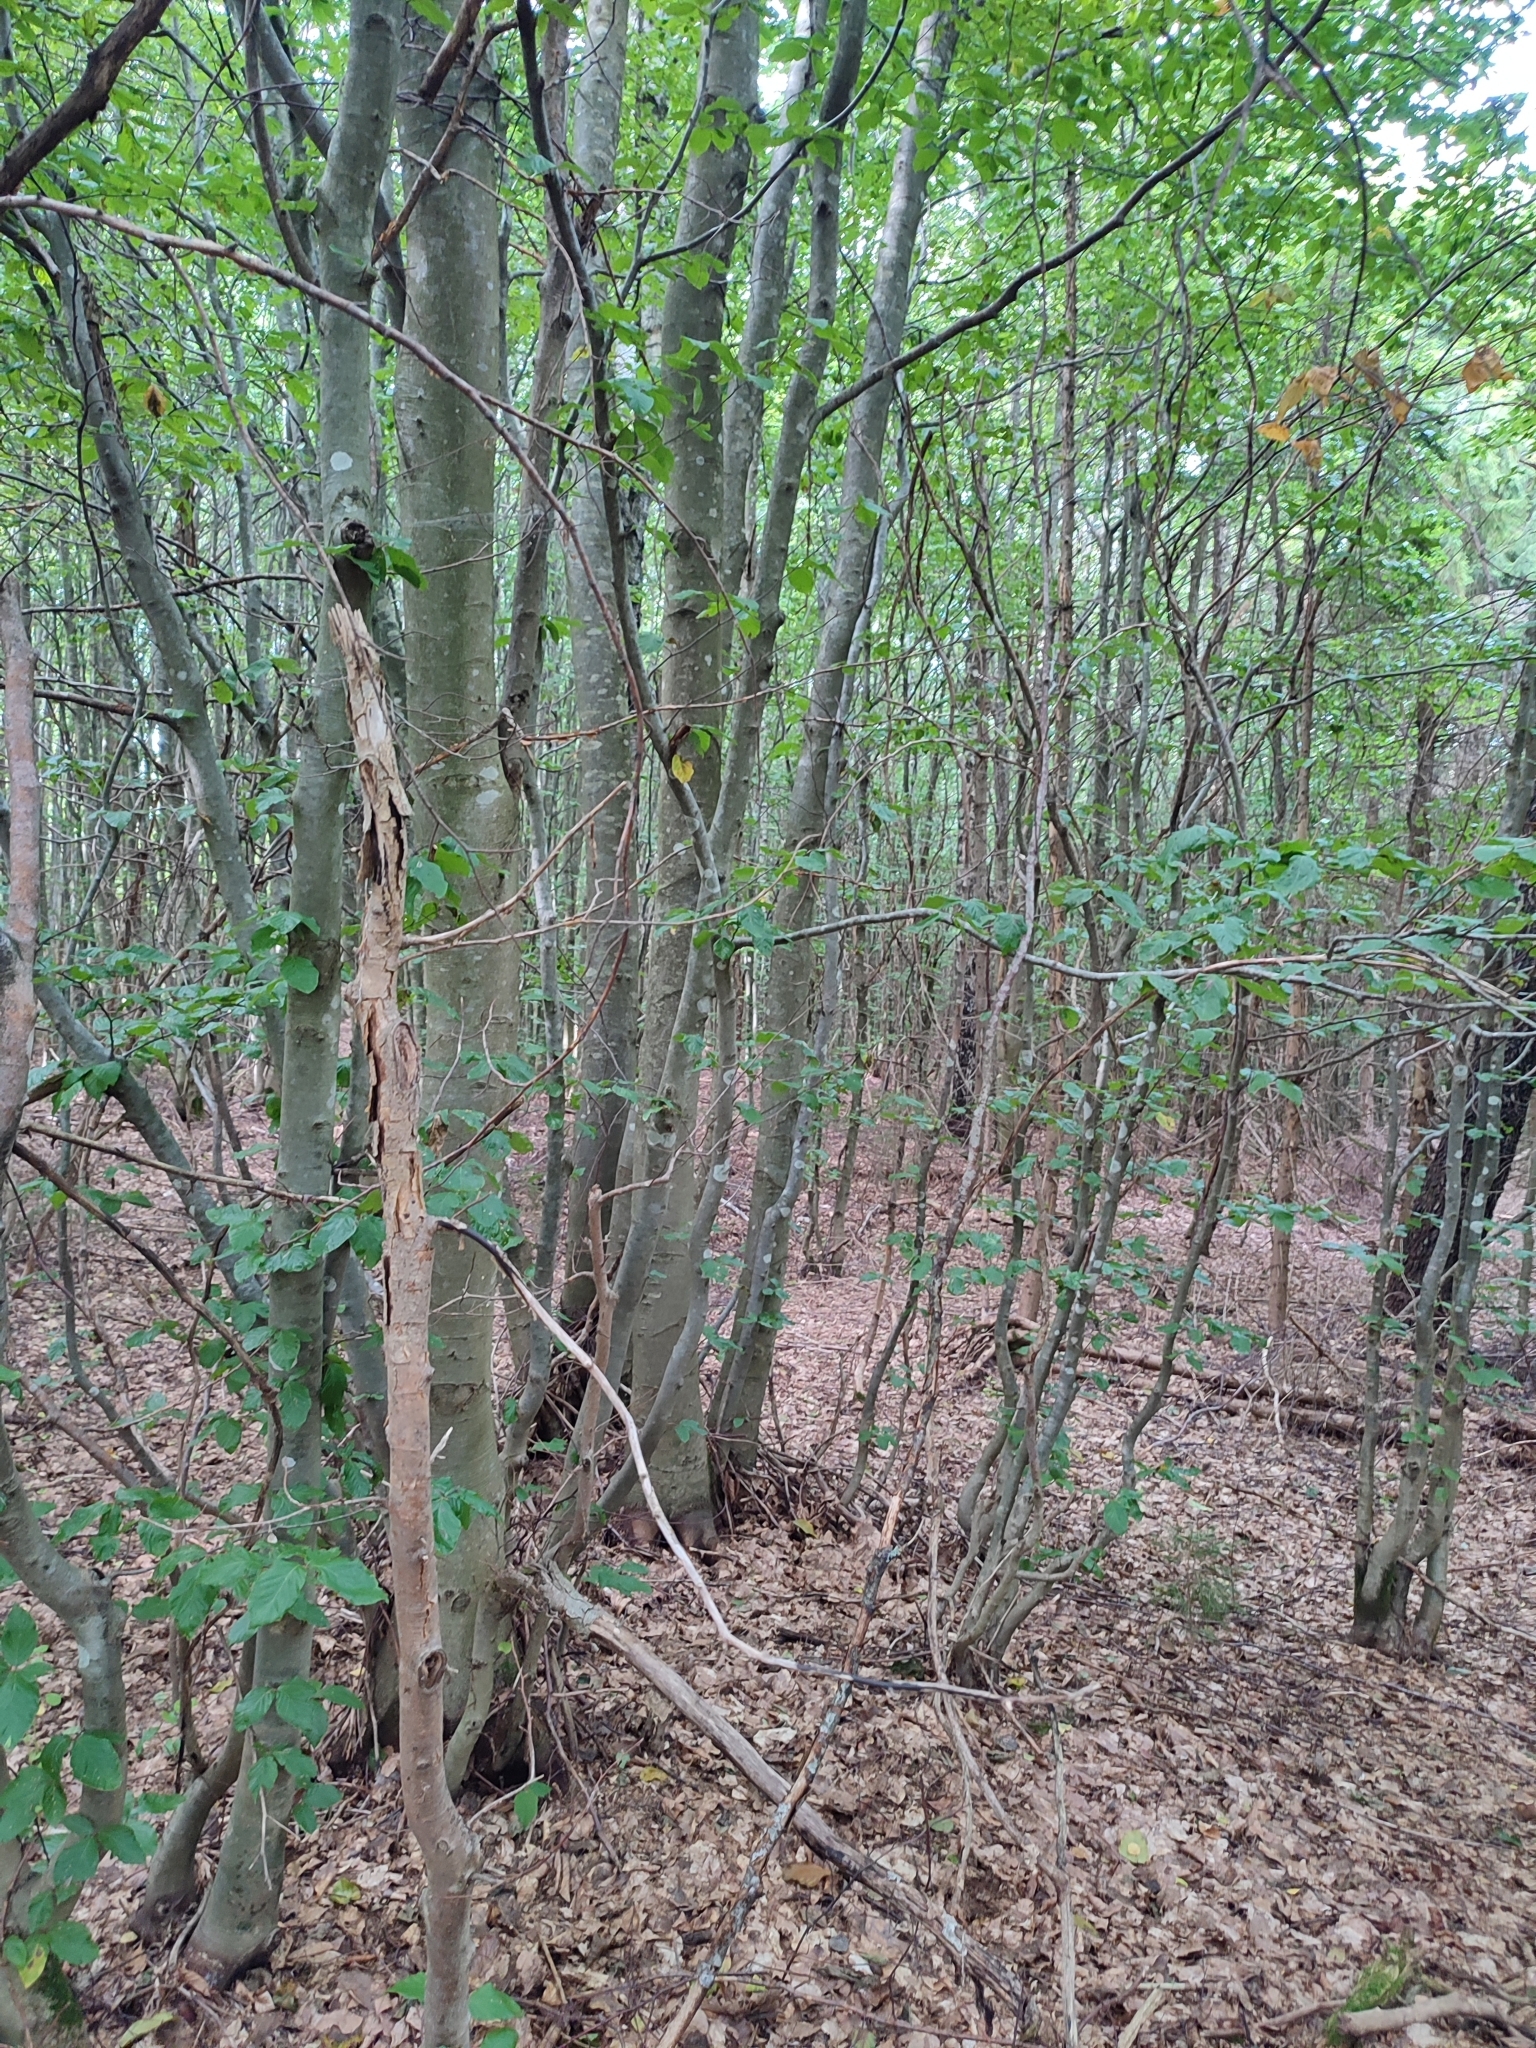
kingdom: Plantae
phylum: Tracheophyta
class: Magnoliopsida
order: Fagales
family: Fagaceae
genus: Fagus
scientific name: Fagus sylvatica
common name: Beech
